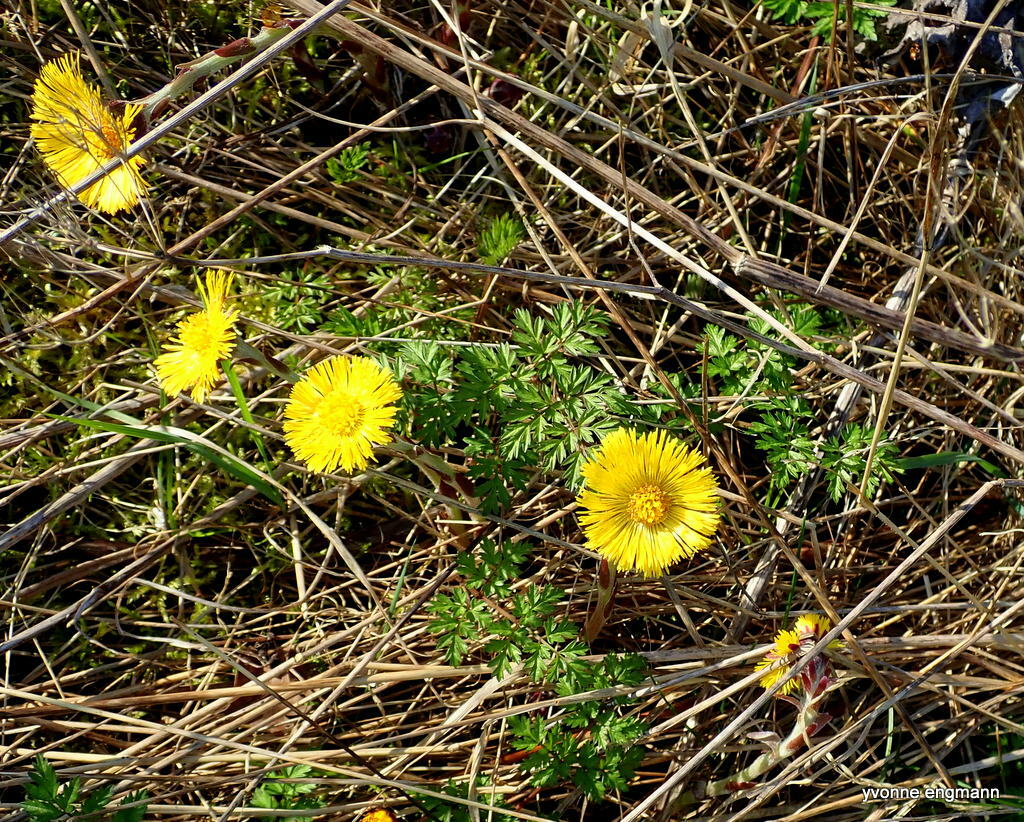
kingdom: Plantae
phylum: Tracheophyta
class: Magnoliopsida
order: Asterales
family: Asteraceae
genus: Tussilago
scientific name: Tussilago farfara
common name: Coltsfoot
